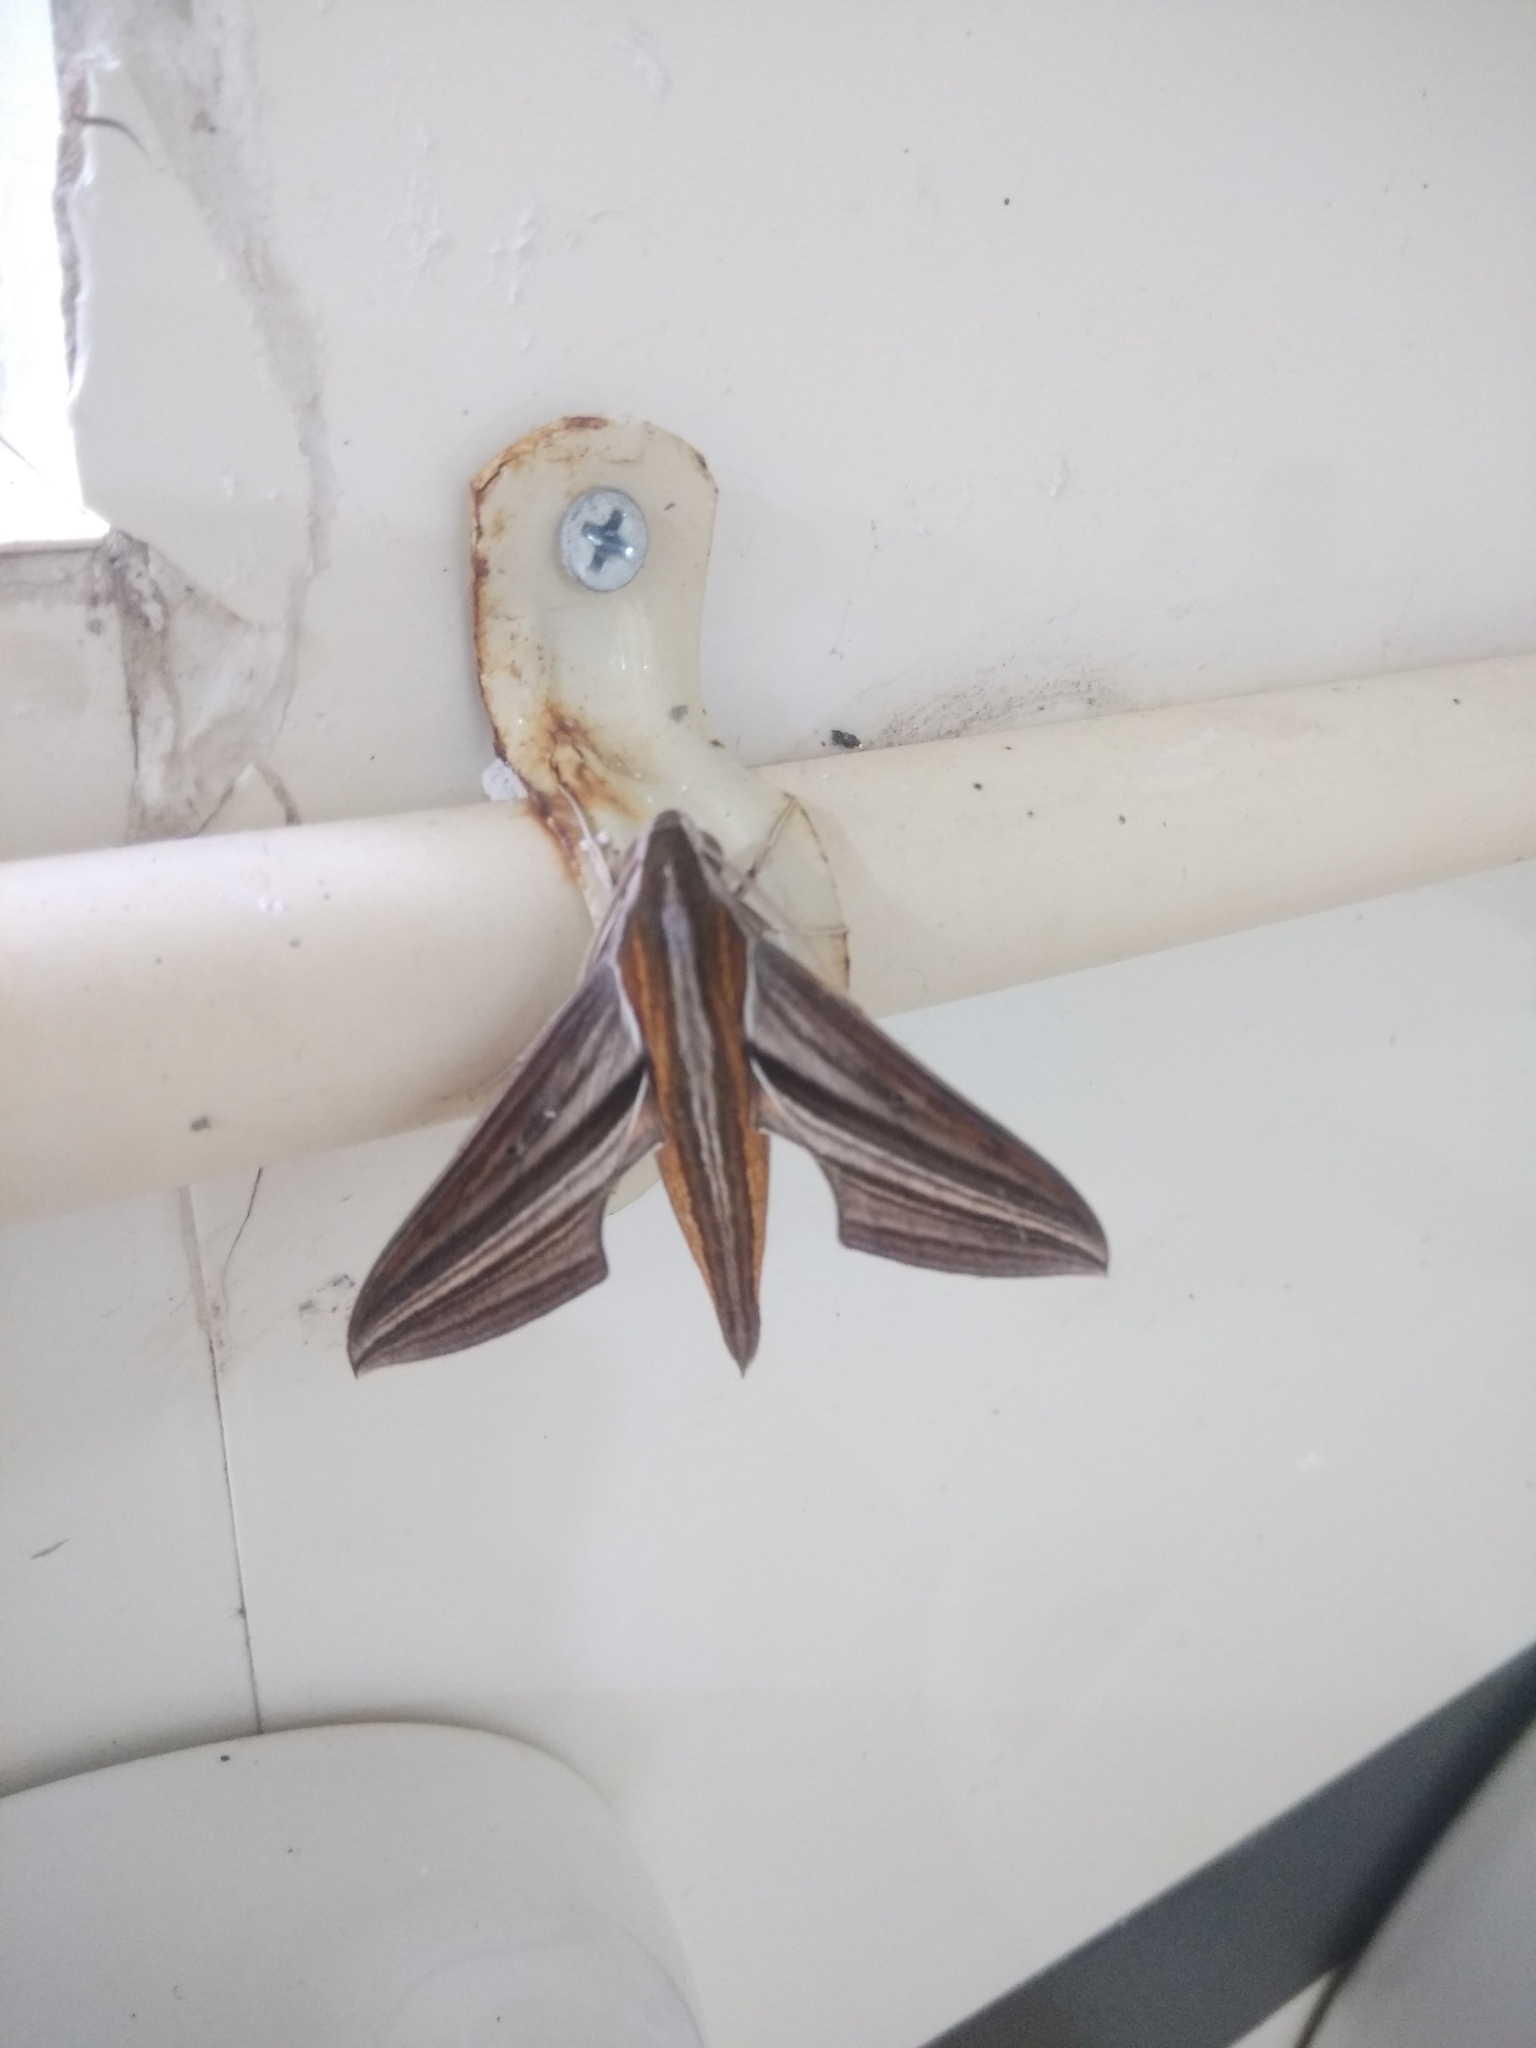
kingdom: Animalia
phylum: Arthropoda
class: Insecta
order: Lepidoptera
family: Sphingidae
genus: Theretra
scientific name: Theretra oldenlandiae
